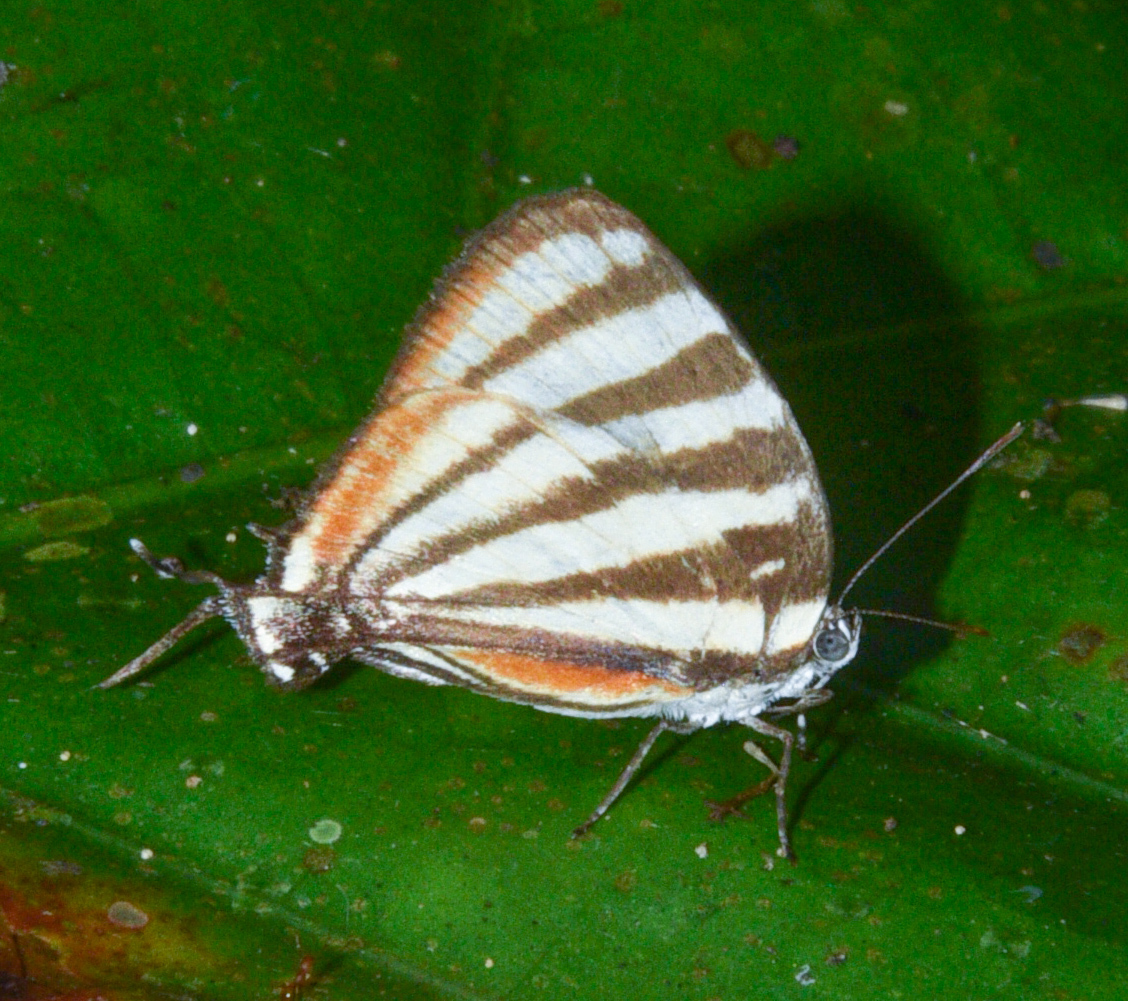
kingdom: Animalia
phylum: Arthropoda
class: Insecta
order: Lepidoptera
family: Lycaenidae
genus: Arawacus
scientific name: Arawacus lincoides
